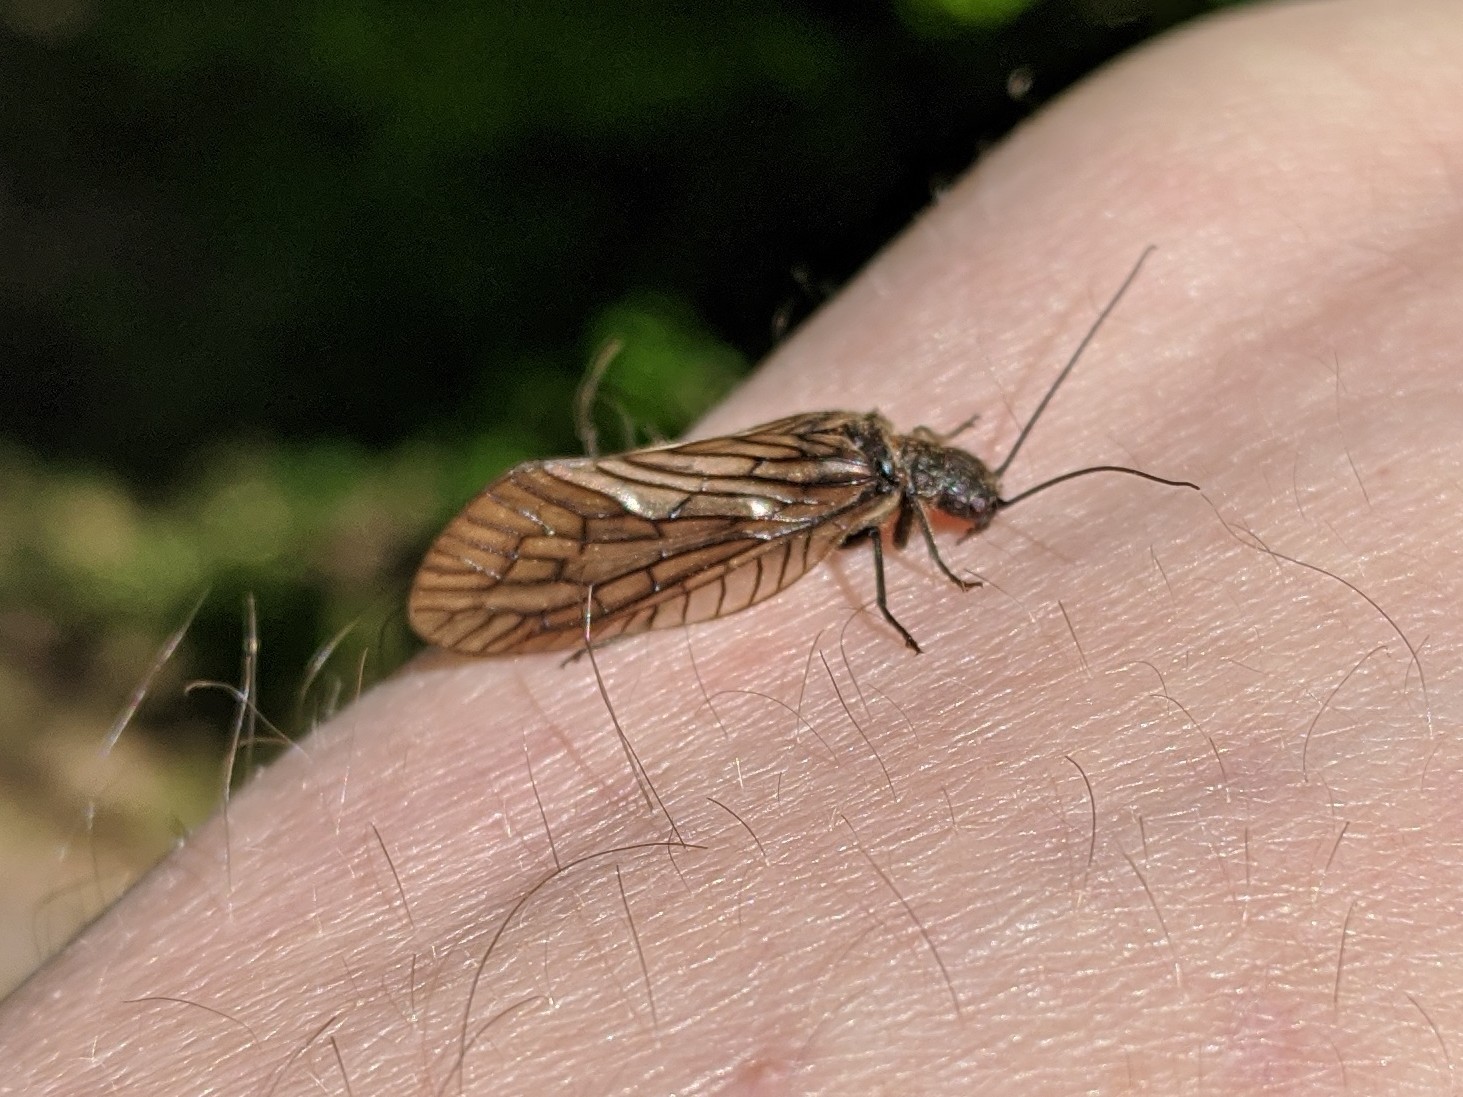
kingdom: Animalia
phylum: Arthropoda
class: Insecta
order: Megaloptera
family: Sialidae
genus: Sialis
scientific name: Sialis
